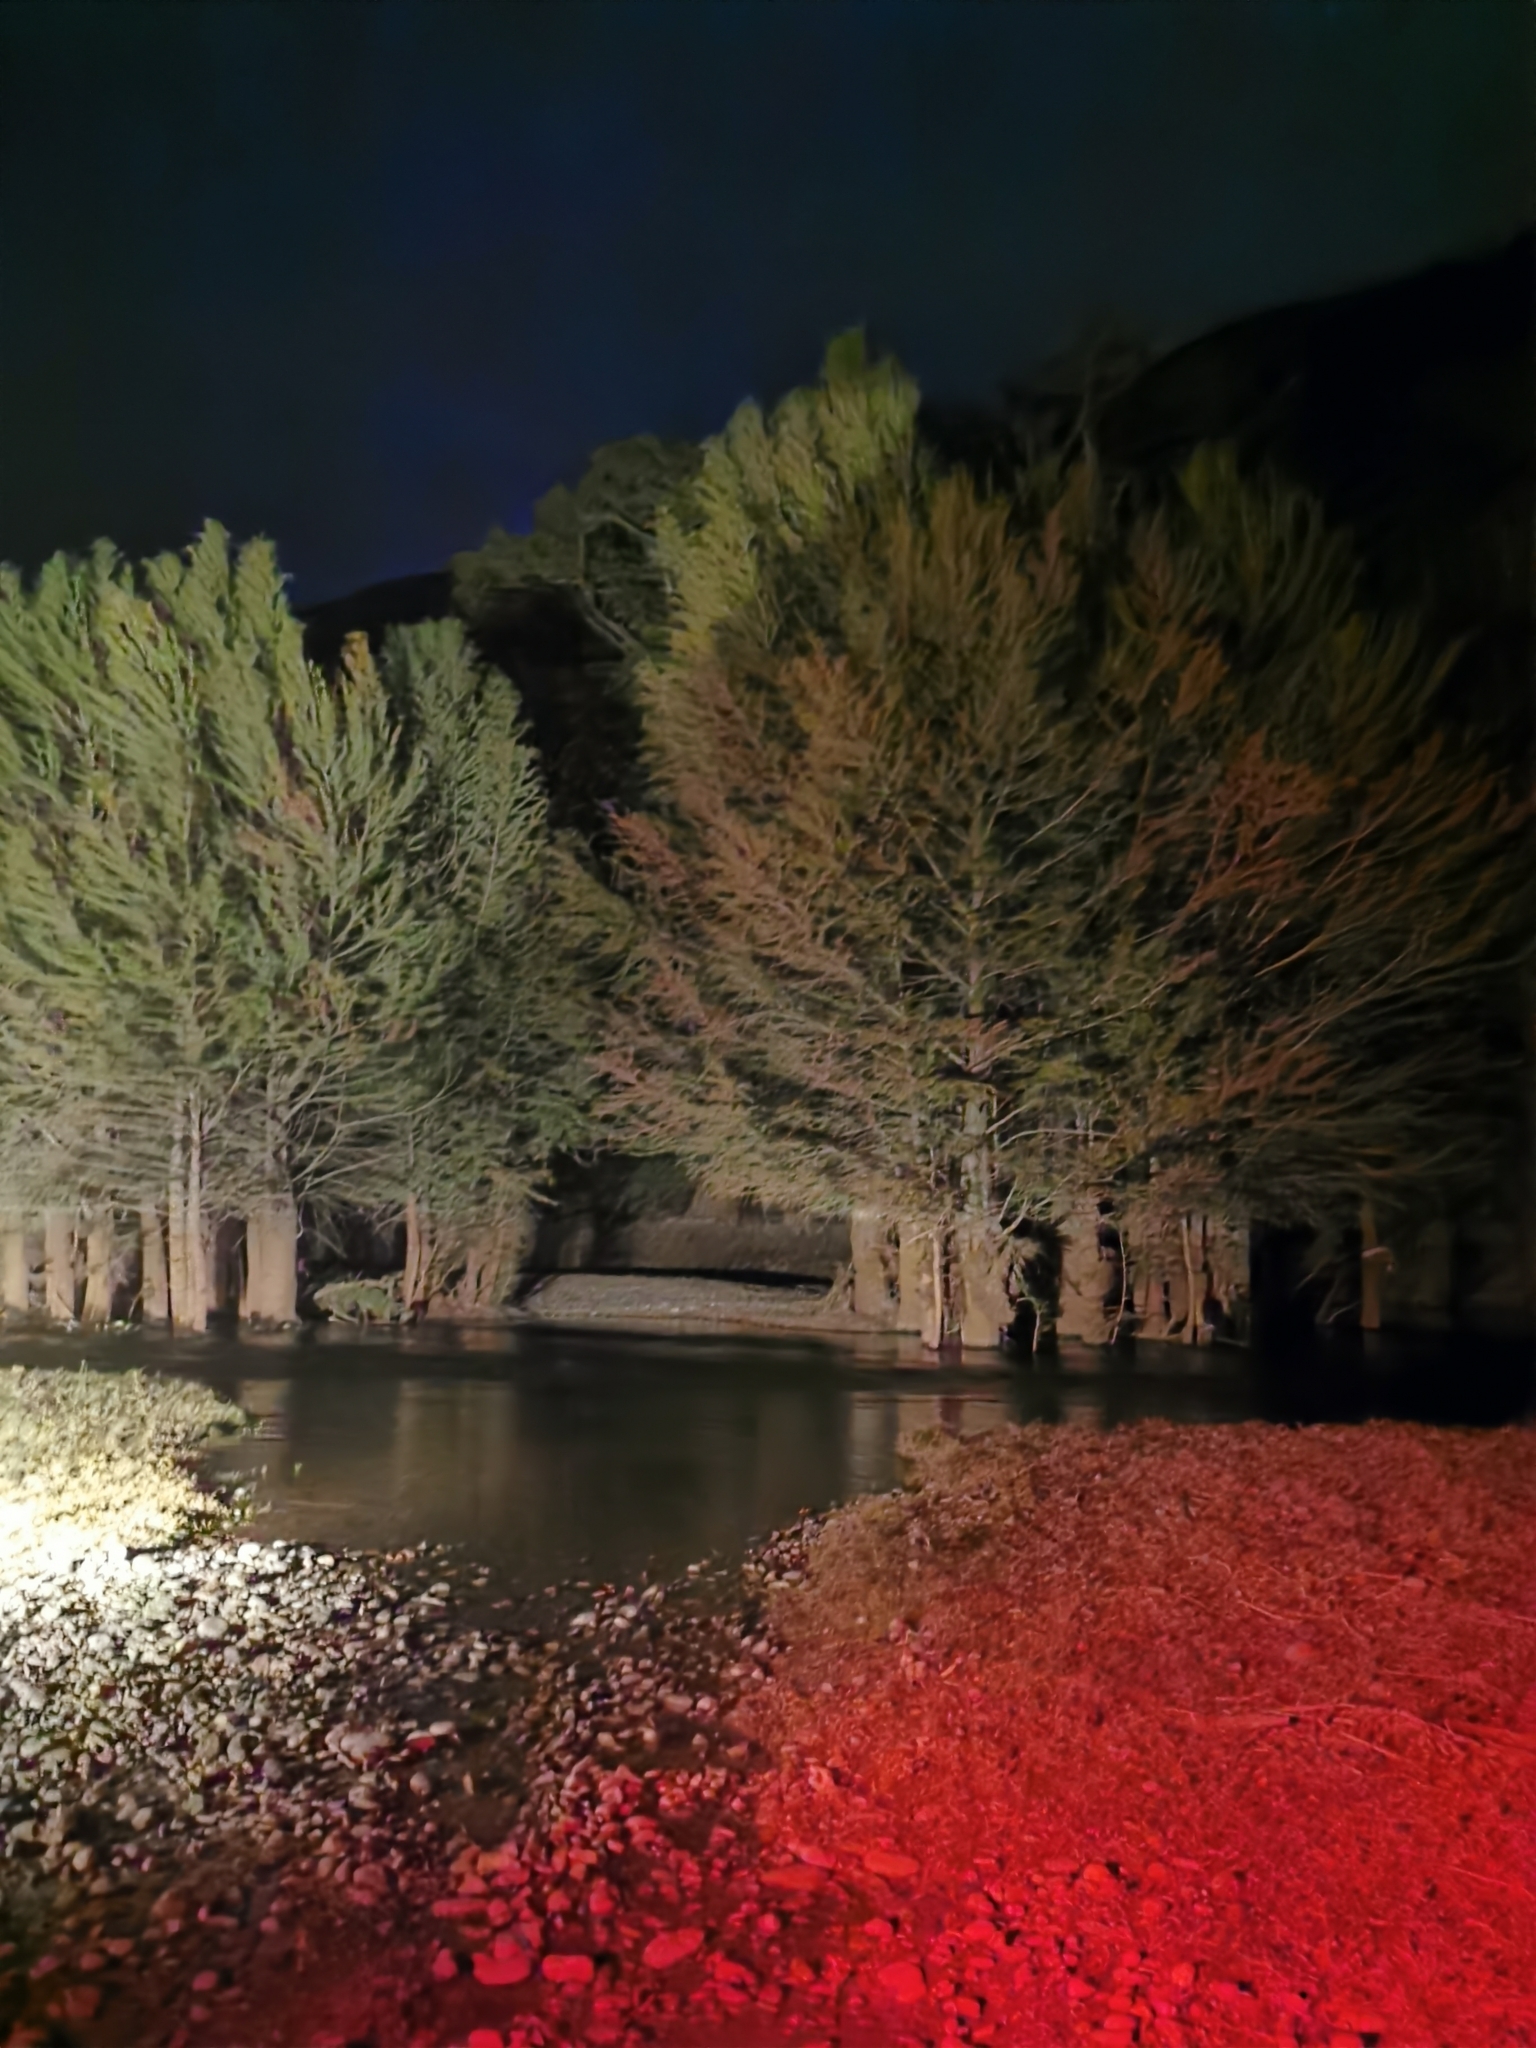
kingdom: Plantae
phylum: Tracheophyta
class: Pinopsida
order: Pinales
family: Cupressaceae
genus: Taxodium
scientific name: Taxodium mucronatum
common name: Montezume bald cypress
